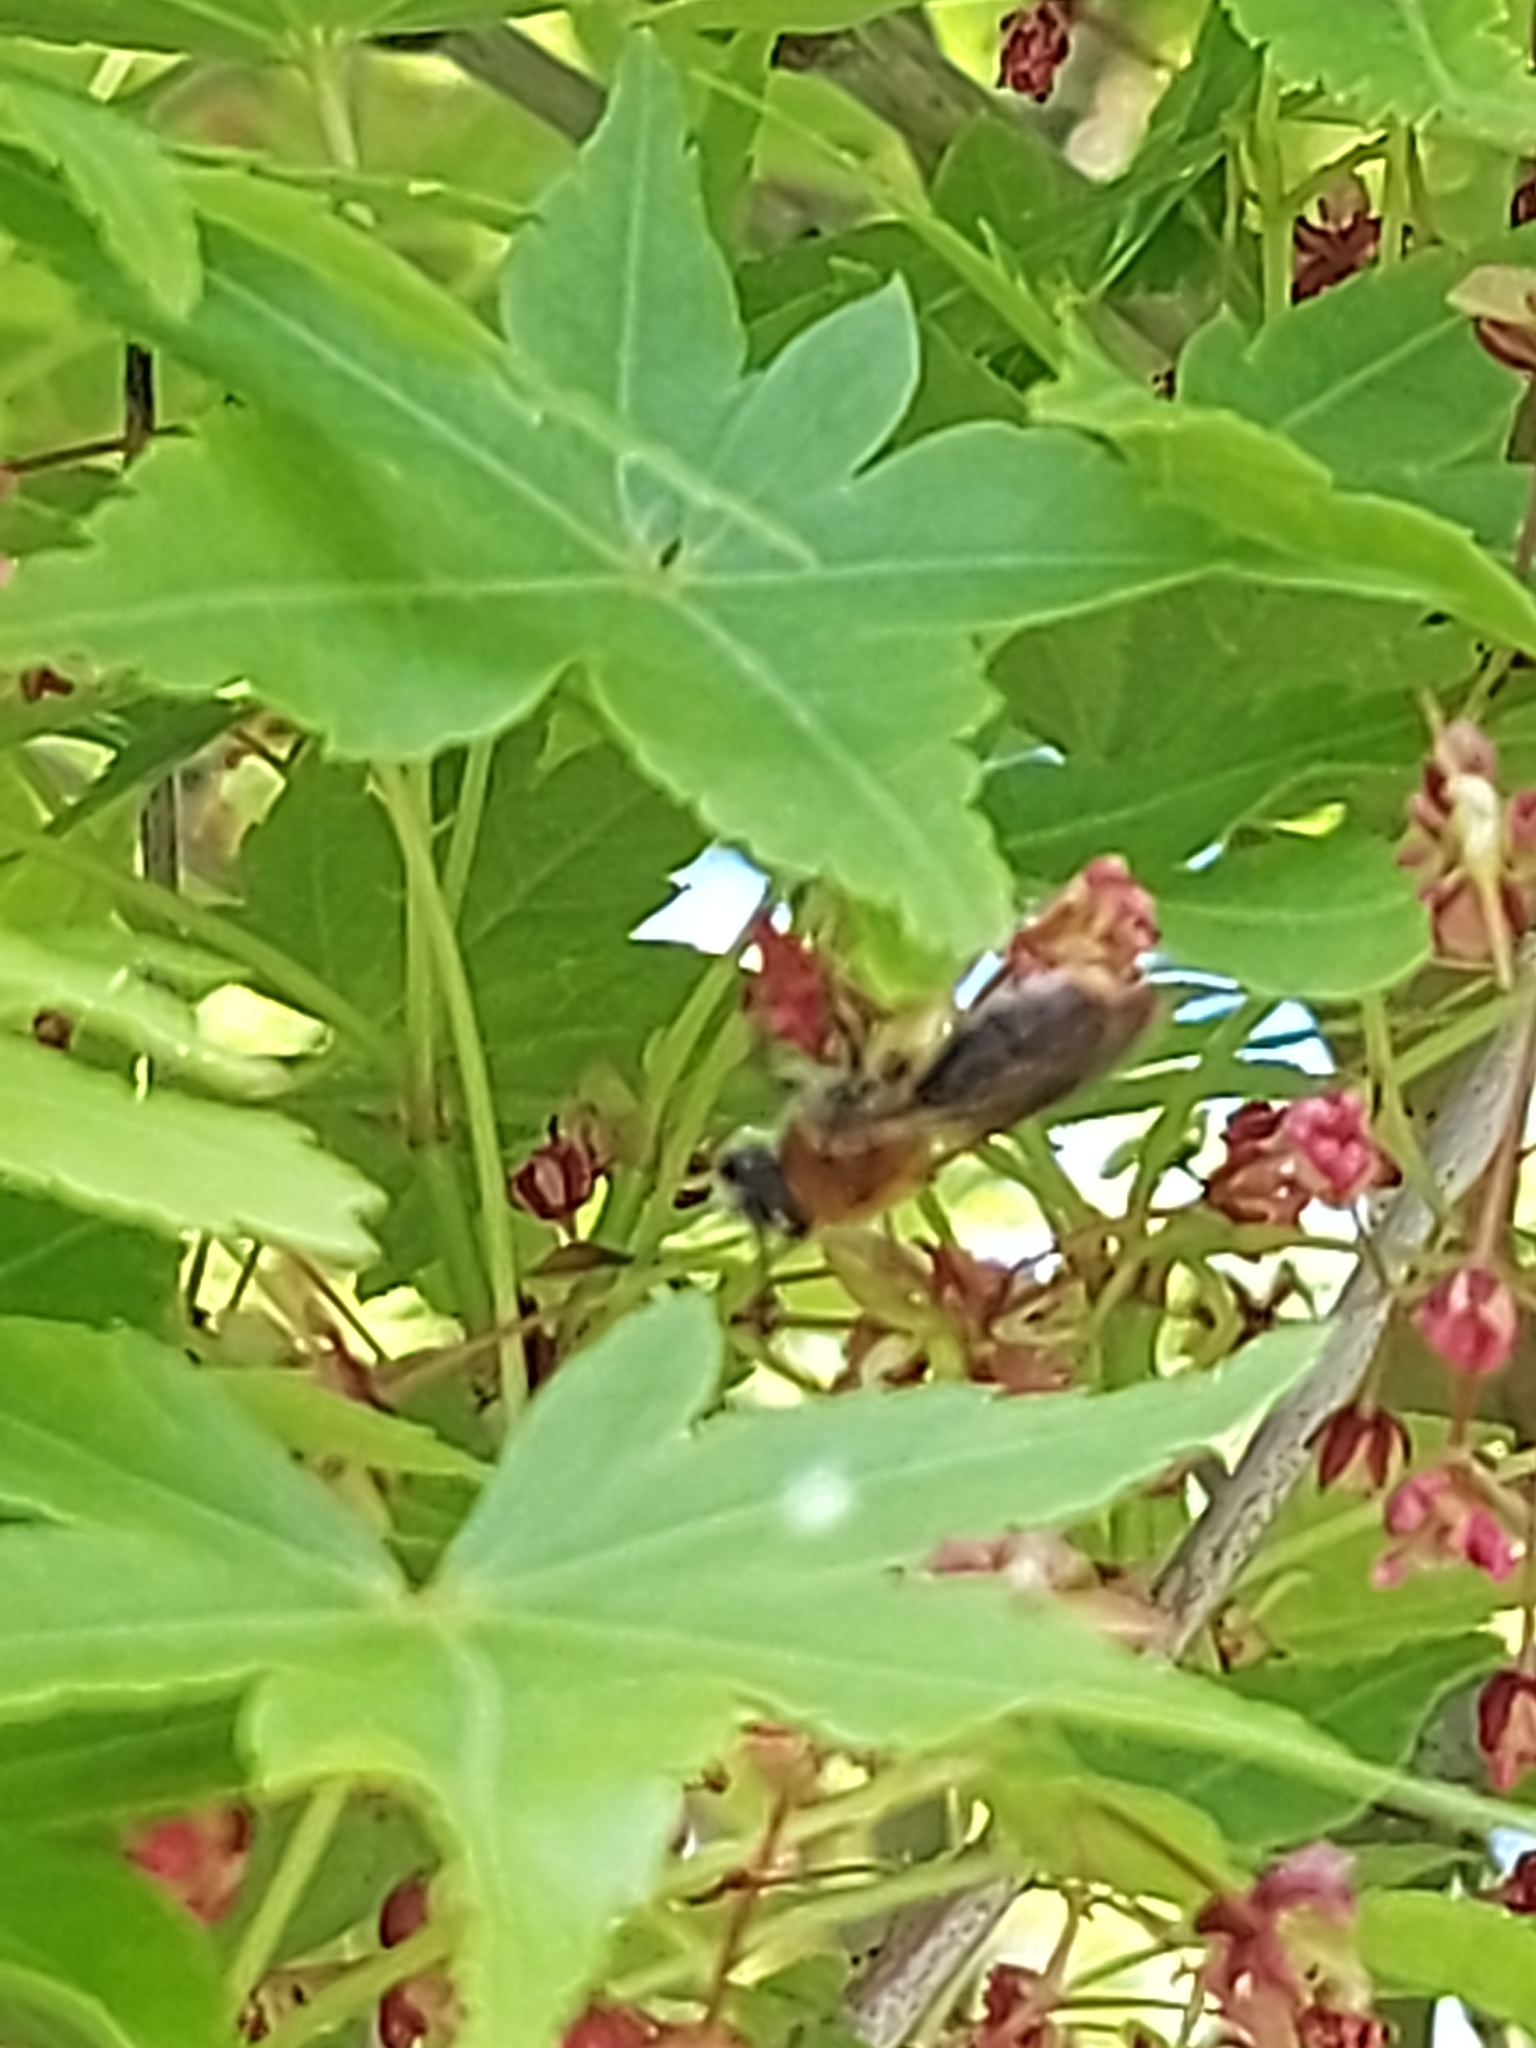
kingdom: Animalia
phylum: Arthropoda
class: Insecta
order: Hymenoptera
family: Andrenidae
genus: Andrena
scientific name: Andrena haemorrhoa
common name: Early mining bee
